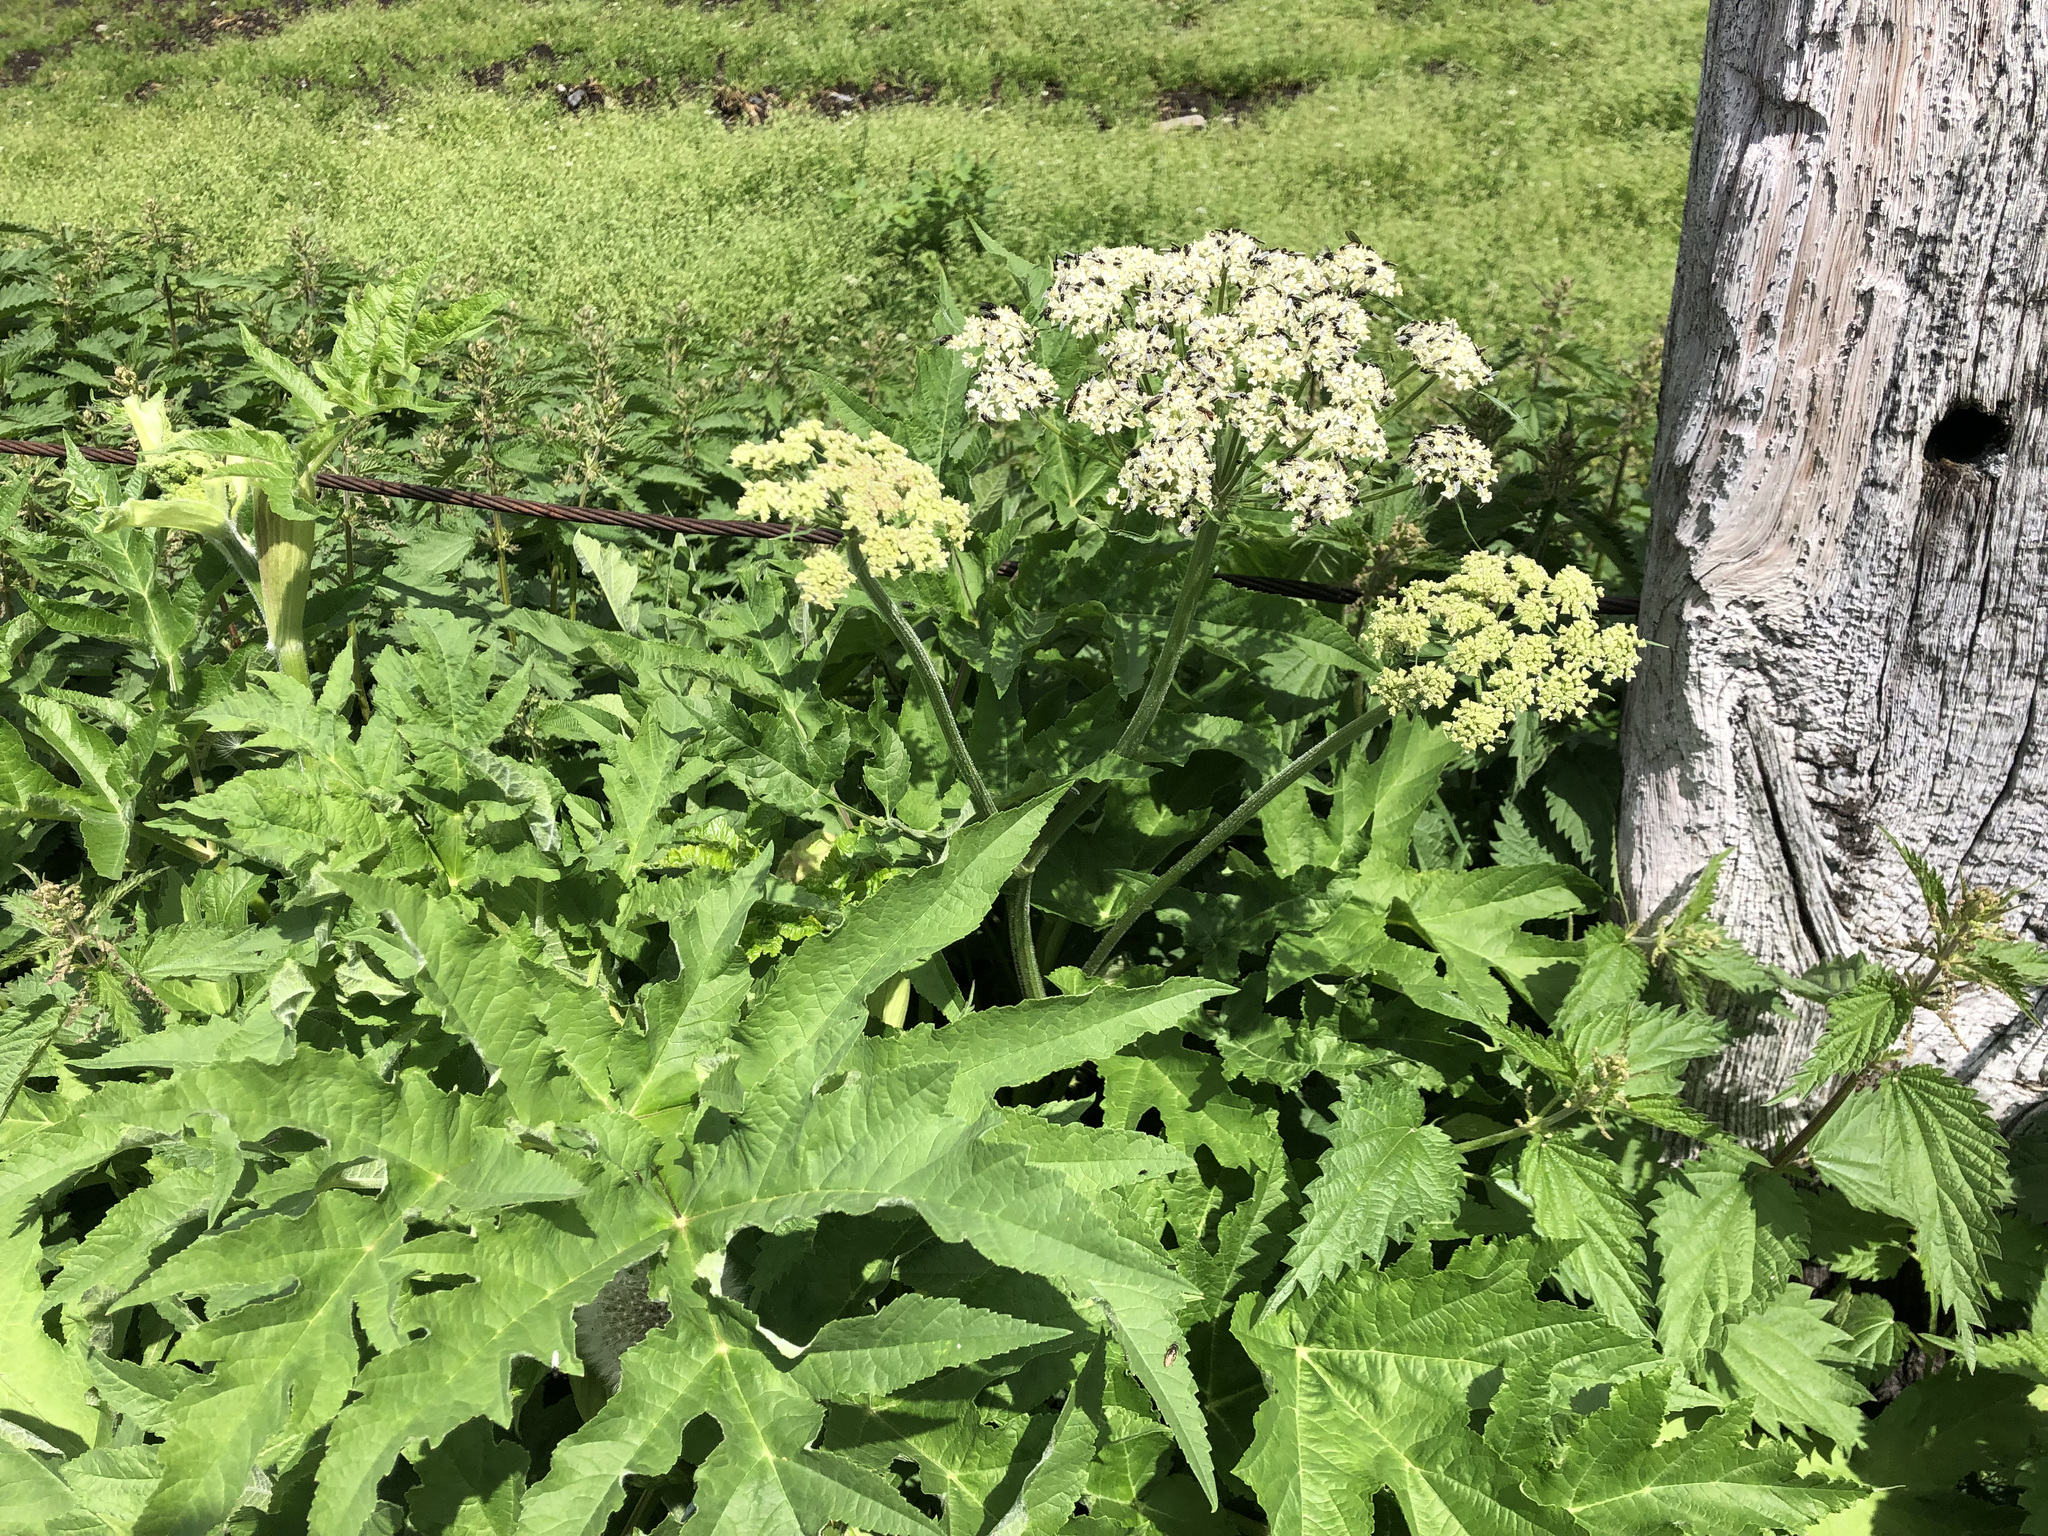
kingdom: Plantae
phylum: Tracheophyta
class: Magnoliopsida
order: Apiales
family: Apiaceae
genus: Heracleum
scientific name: Heracleum sphondylium
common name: Hogweed
